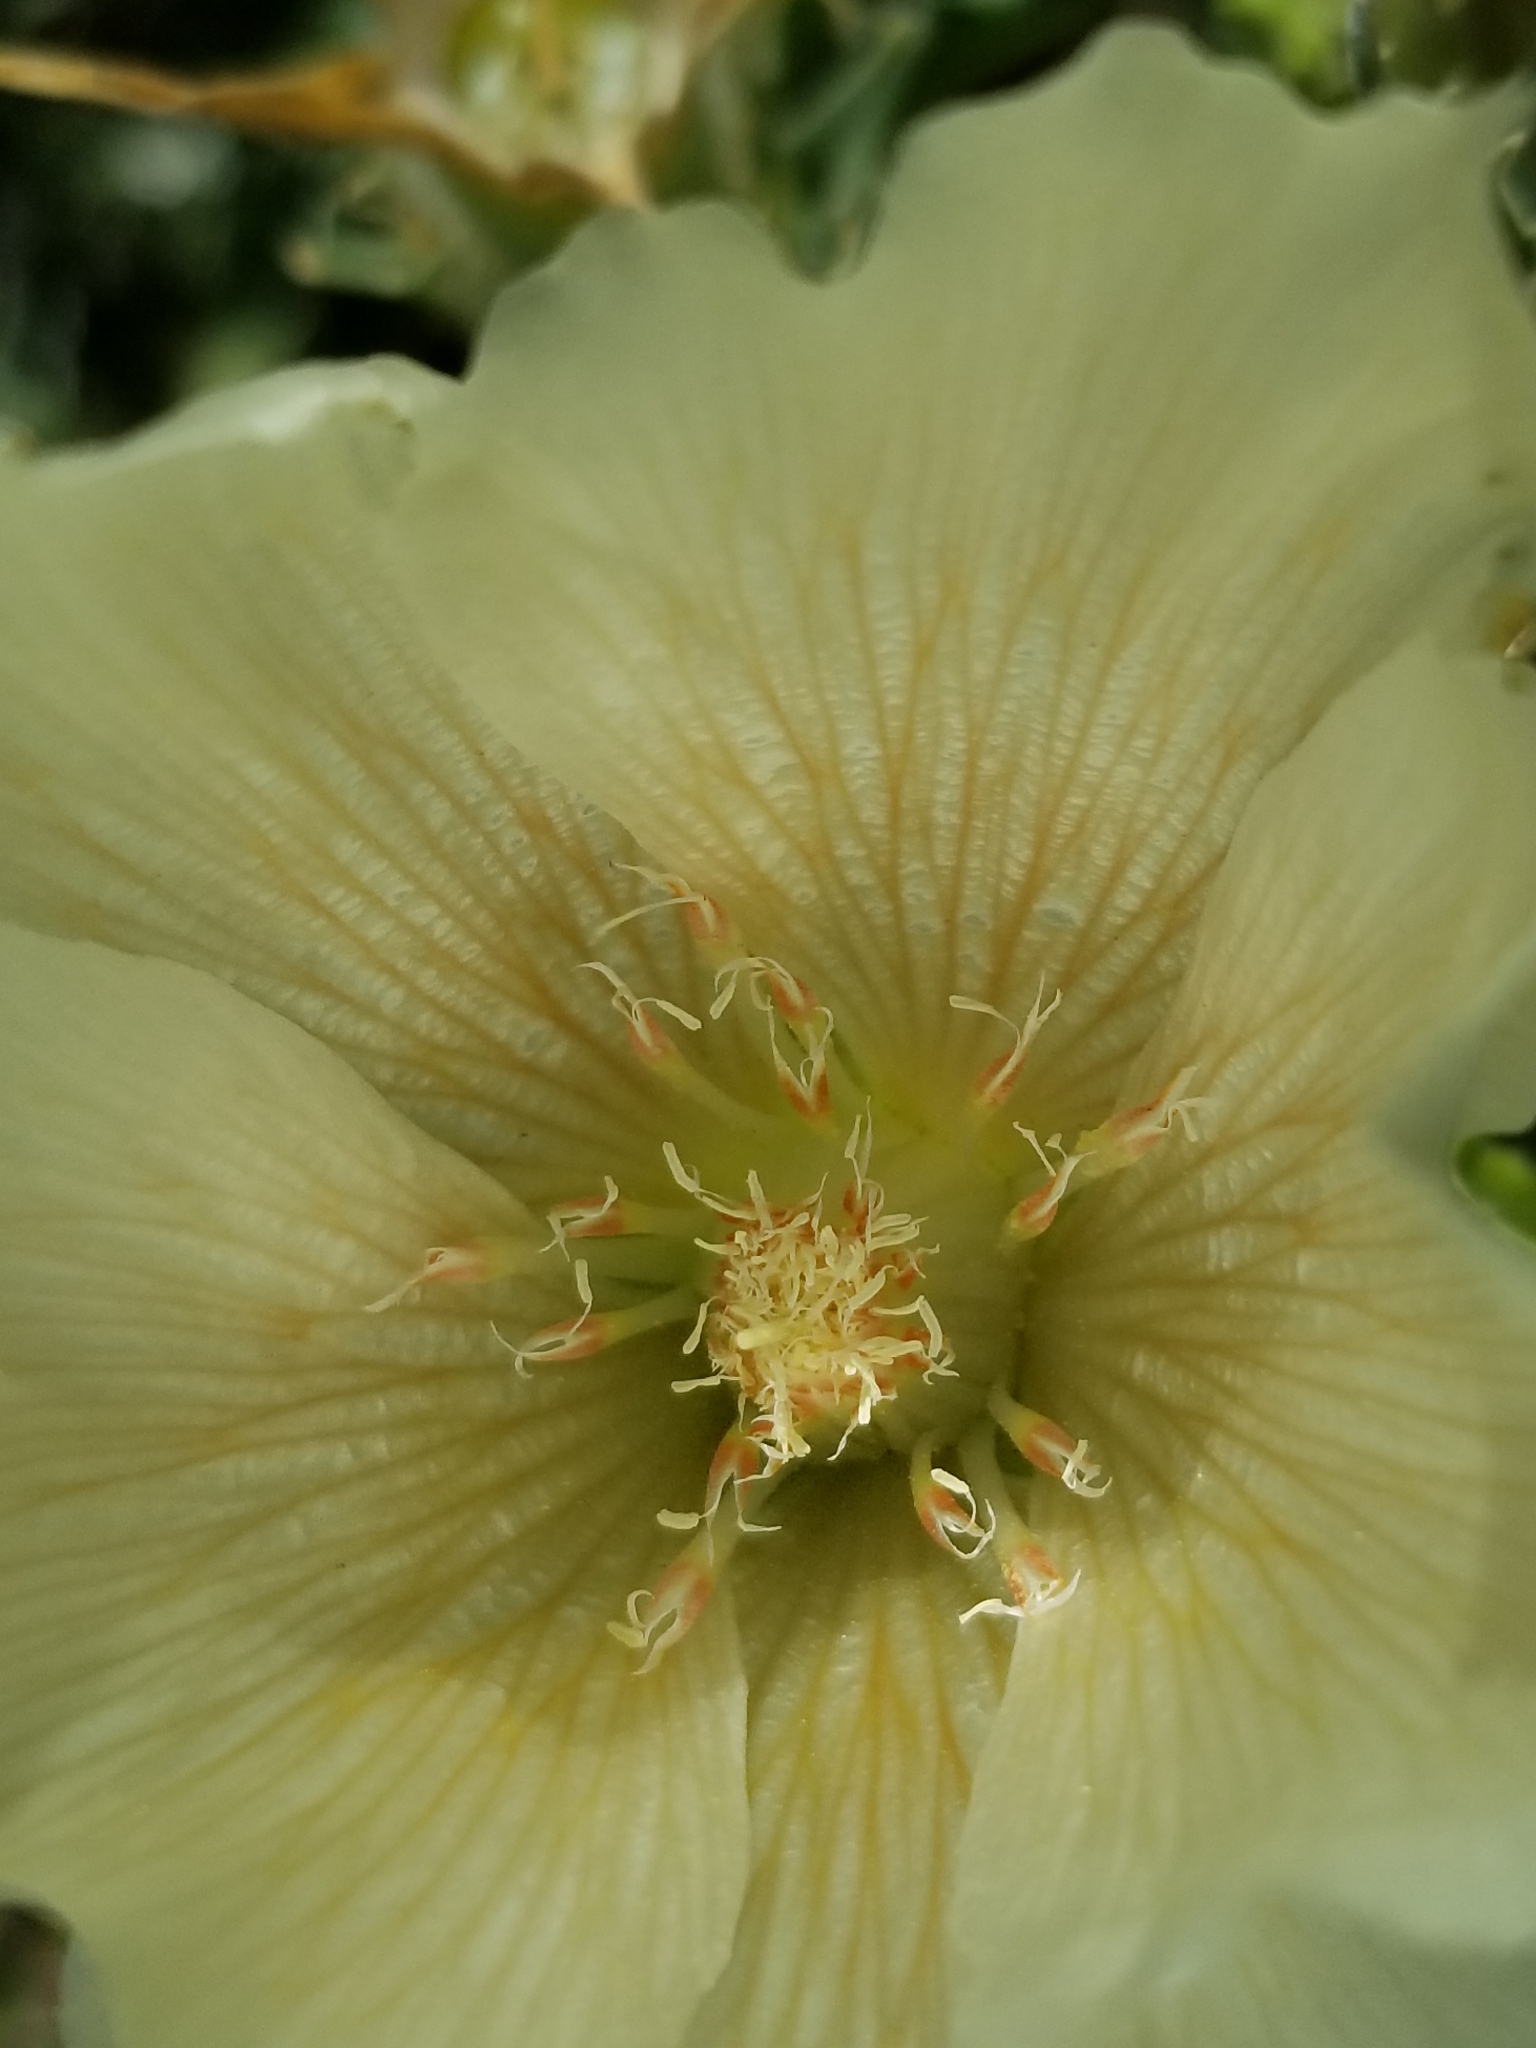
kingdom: Plantae
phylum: Tracheophyta
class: Magnoliopsida
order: Cornales
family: Loasaceae
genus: Mentzelia
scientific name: Mentzelia involucrata
